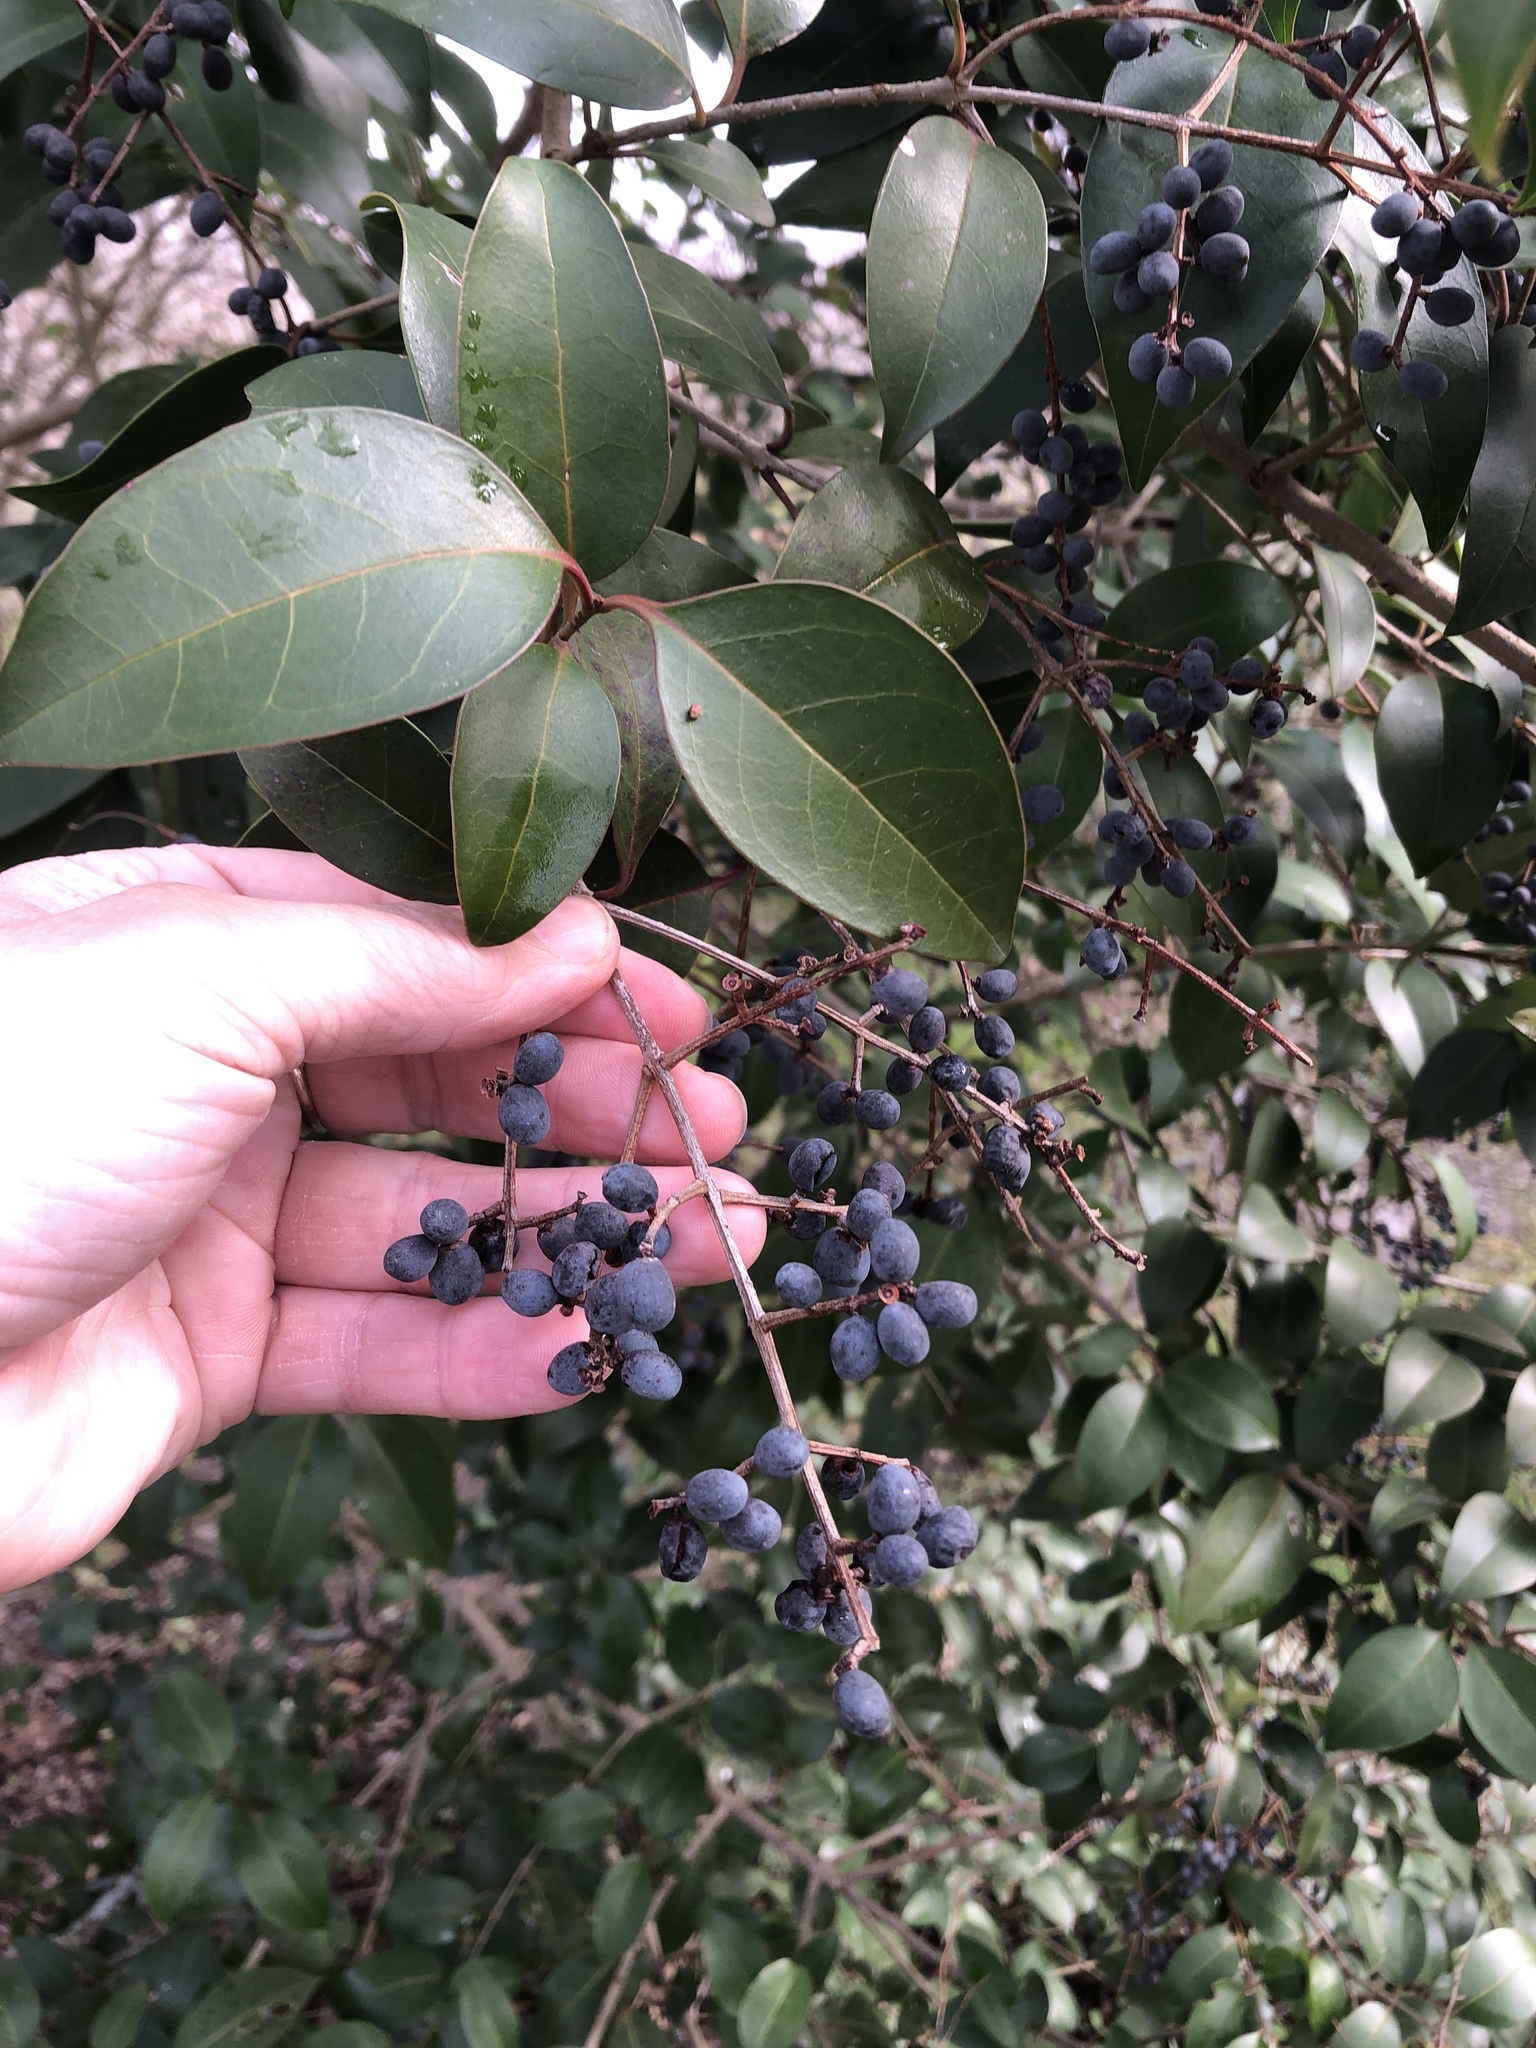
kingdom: Plantae
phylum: Tracheophyta
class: Magnoliopsida
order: Lamiales
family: Oleaceae
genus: Ligustrum
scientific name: Ligustrum lucidum
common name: Glossy privet
